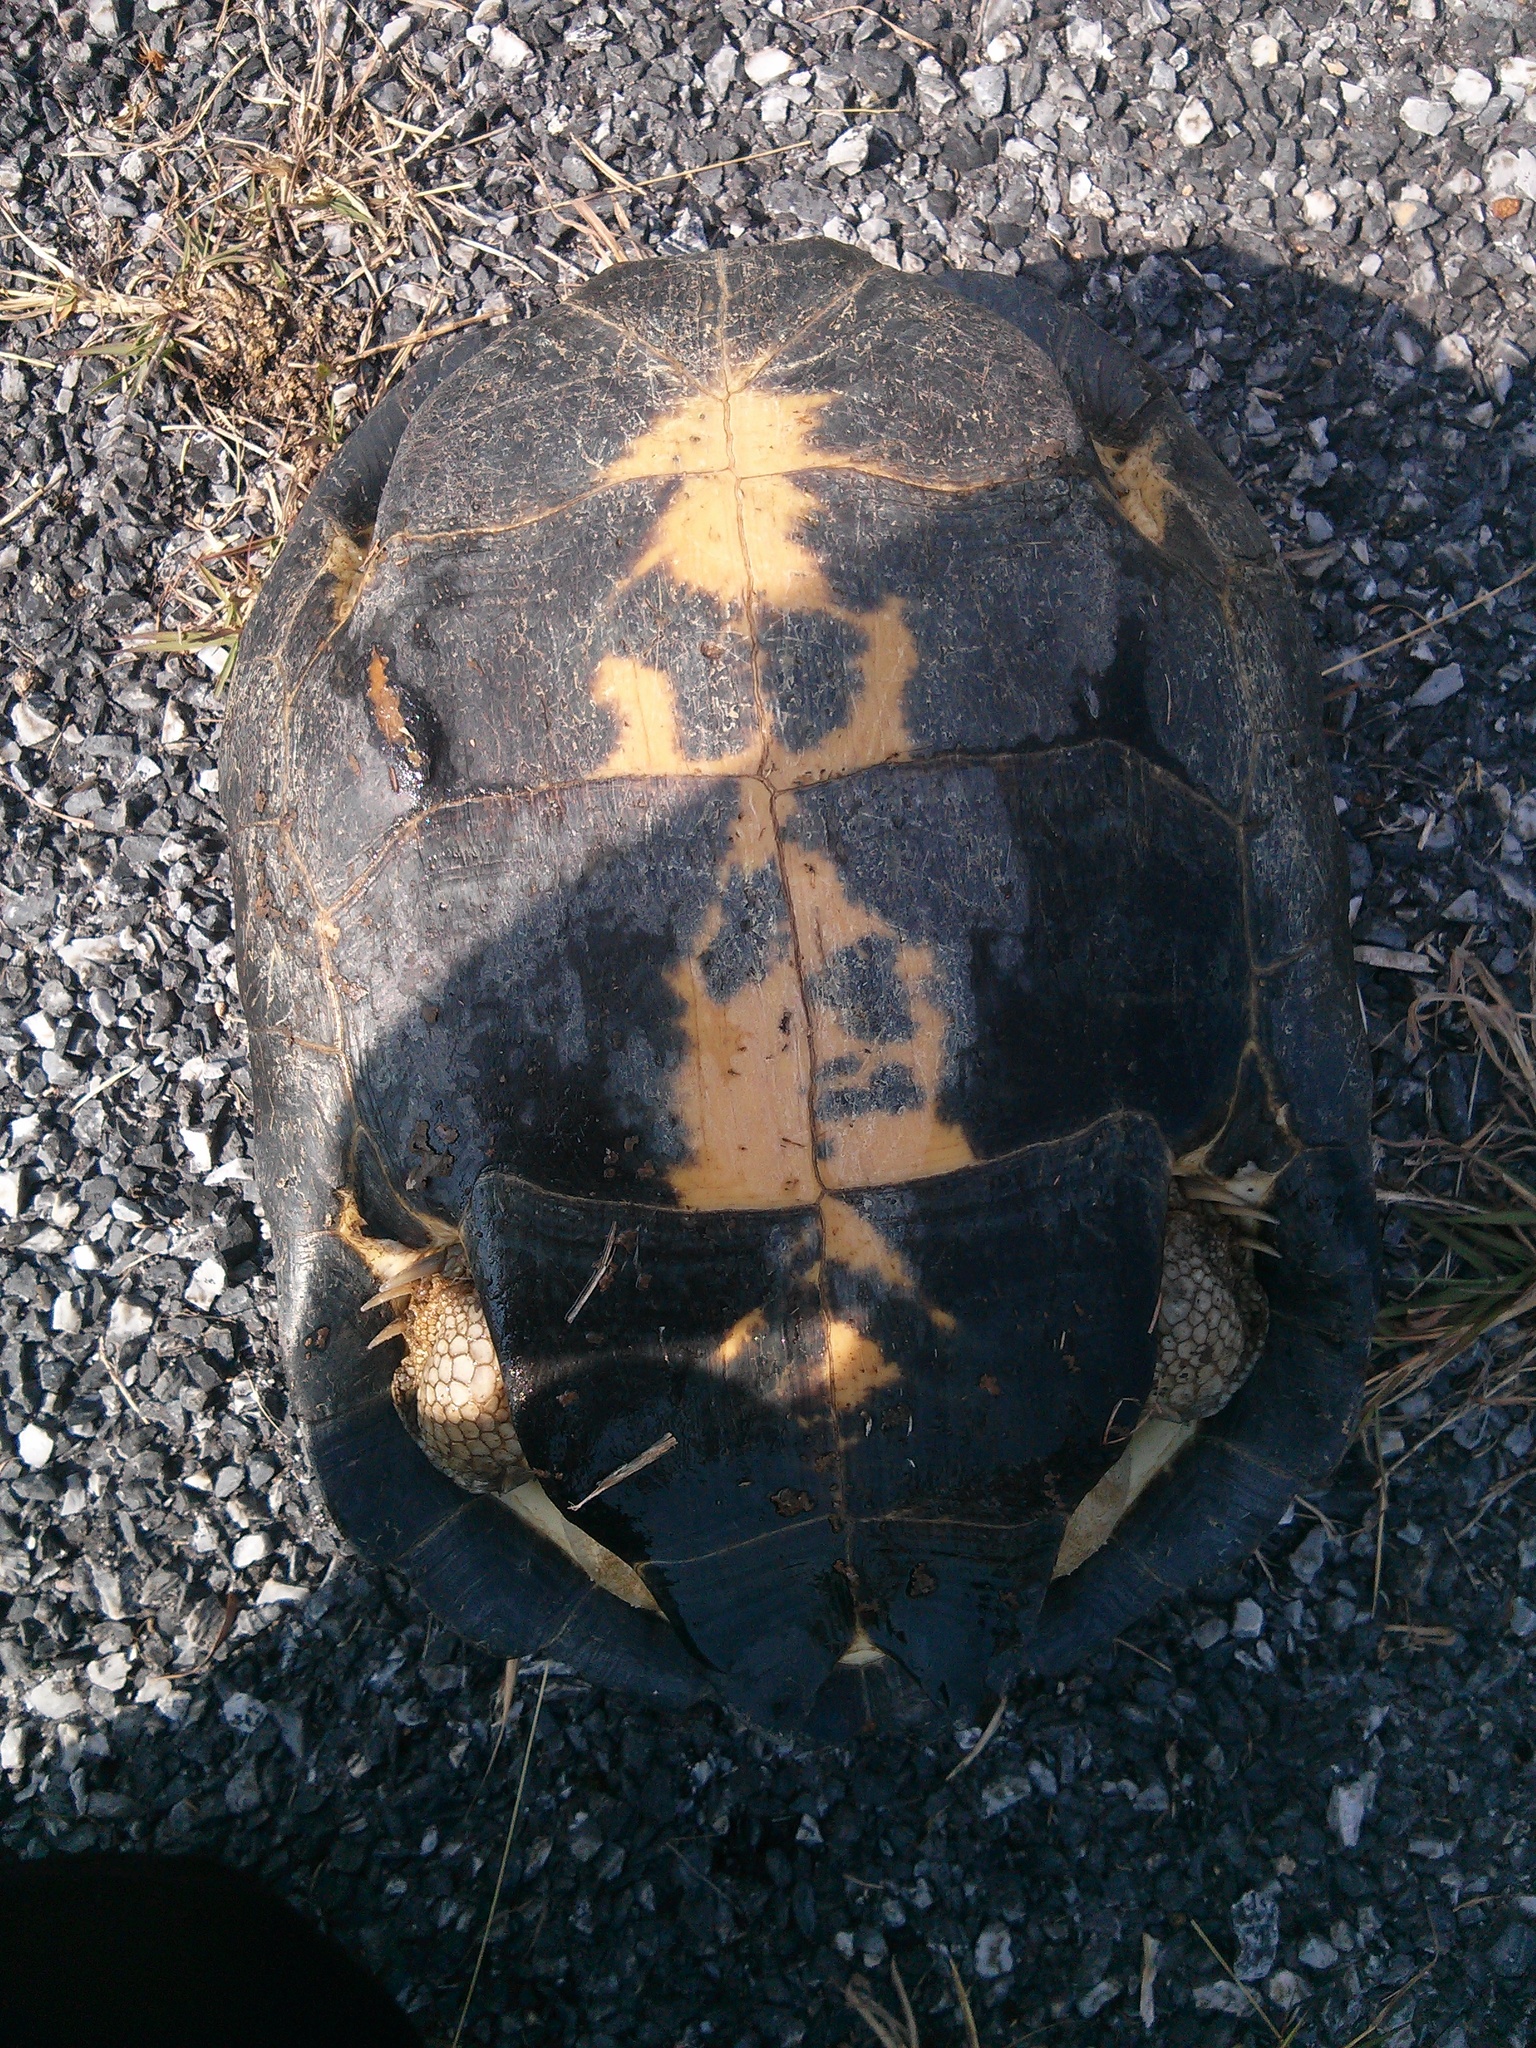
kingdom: Animalia
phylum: Chordata
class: Testudines
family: Geoemydidae
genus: Heosemys
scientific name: Heosemys annandalii
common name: Yellow-headed temple turtle
